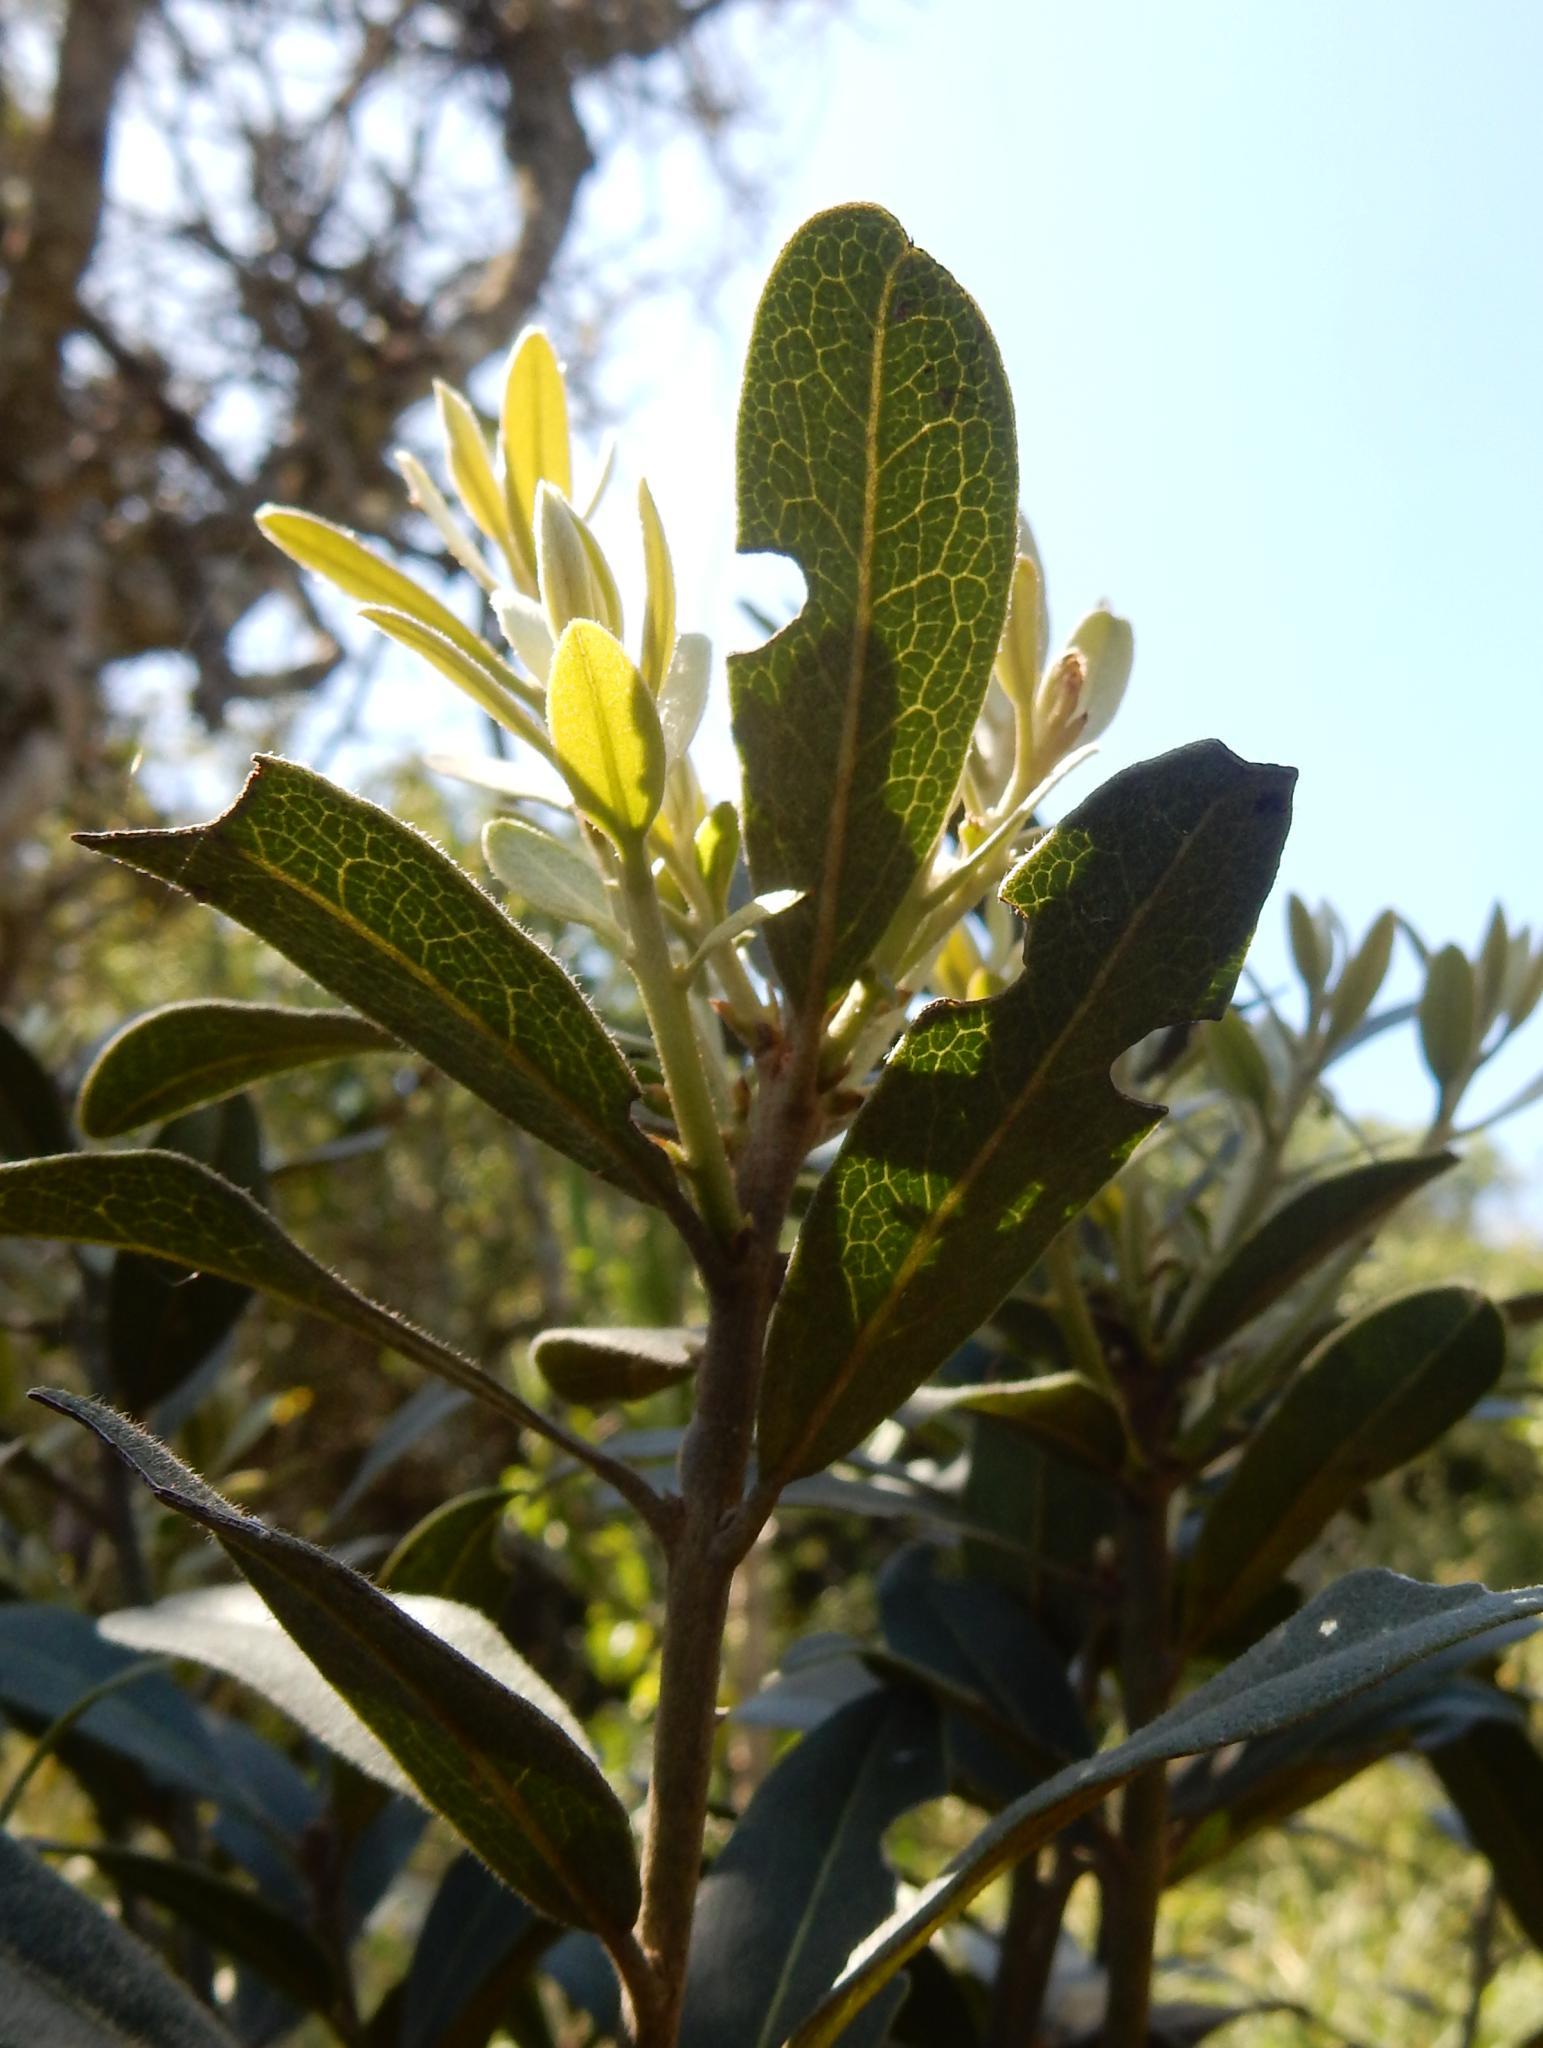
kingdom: Plantae
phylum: Tracheophyta
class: Magnoliopsida
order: Ericales
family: Ebenaceae
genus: Euclea
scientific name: Euclea natalensis
